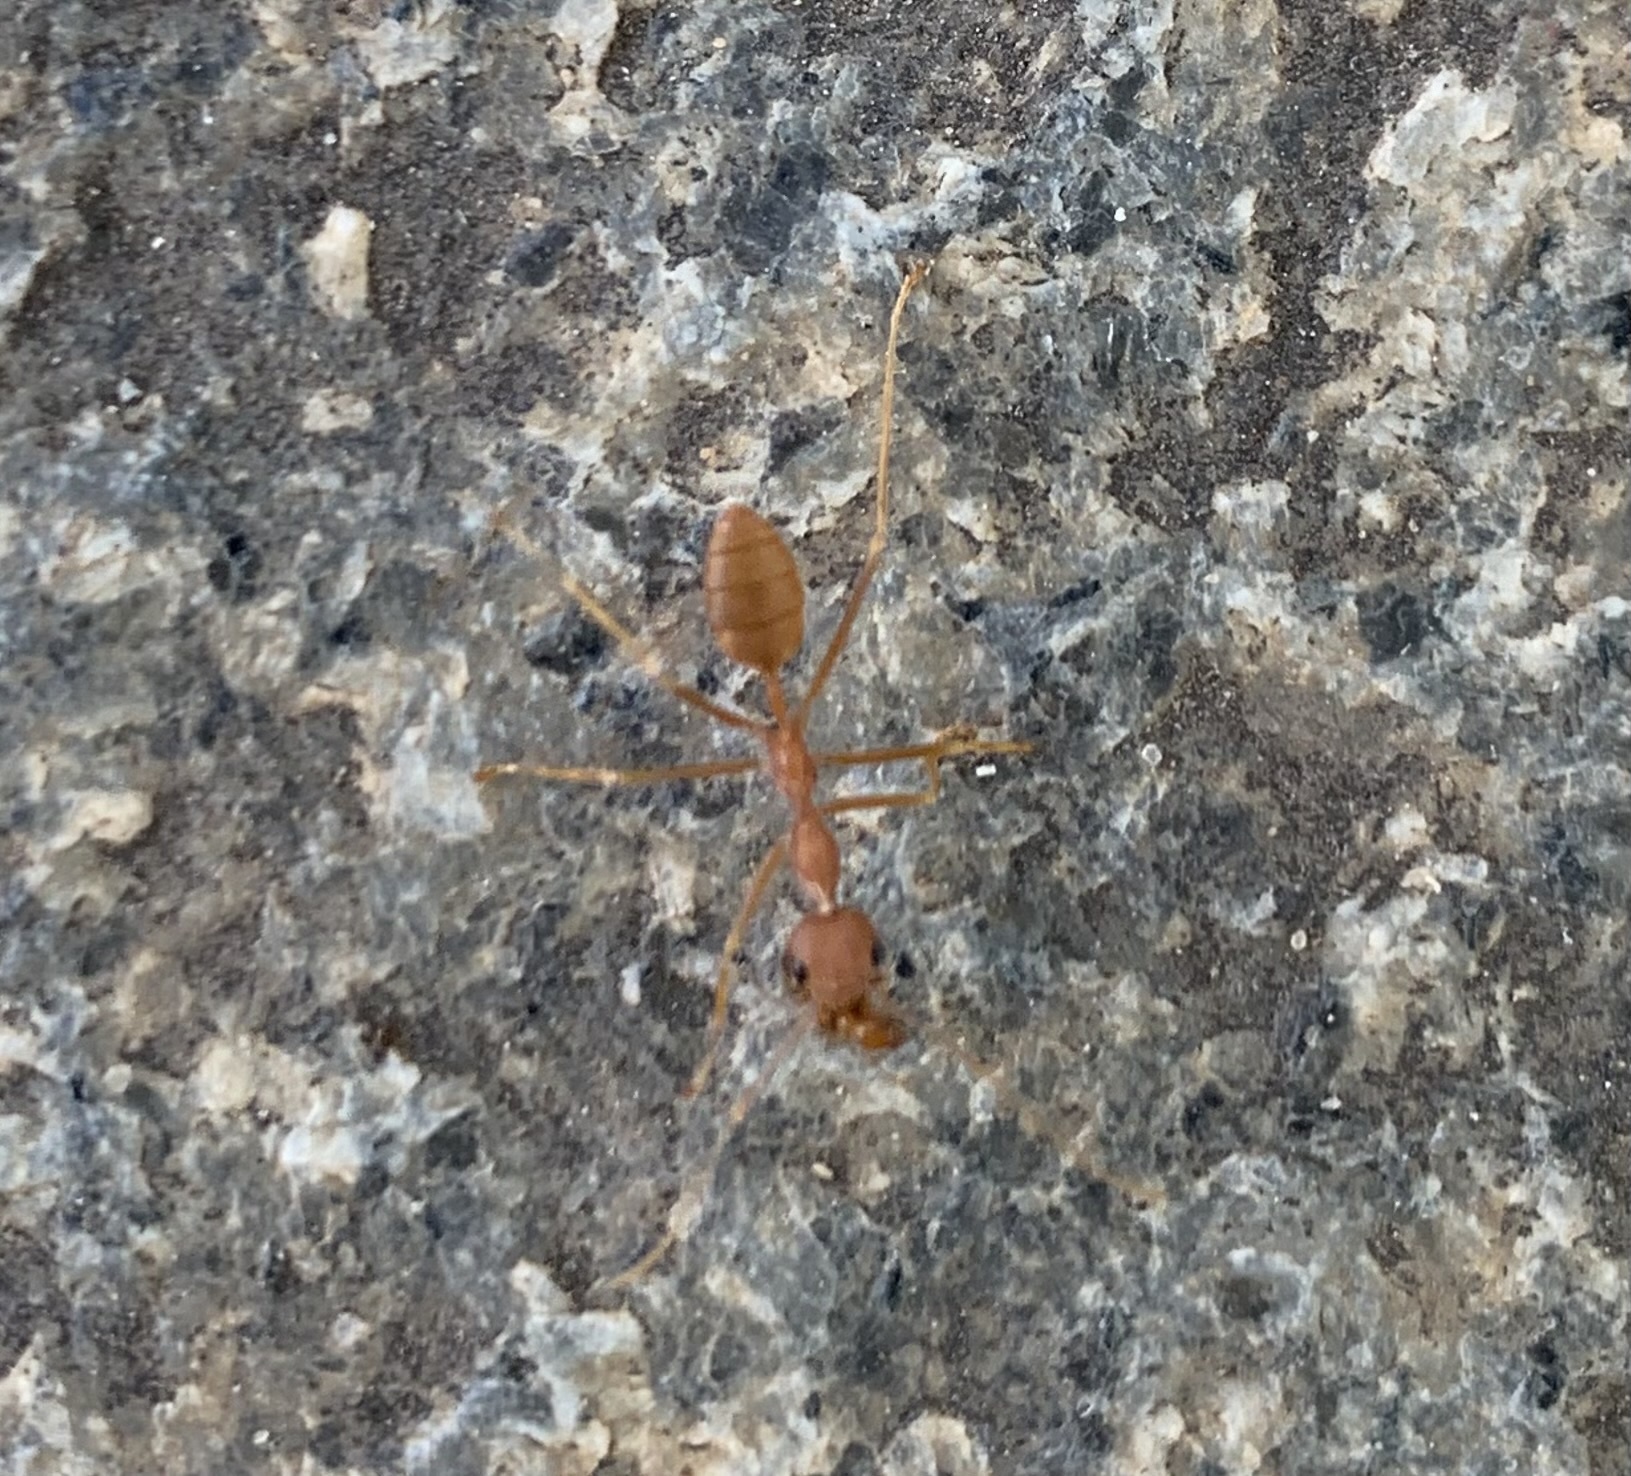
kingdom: Animalia
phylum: Arthropoda
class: Insecta
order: Hymenoptera
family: Formicidae
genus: Oecophylla
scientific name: Oecophylla smaragdina
